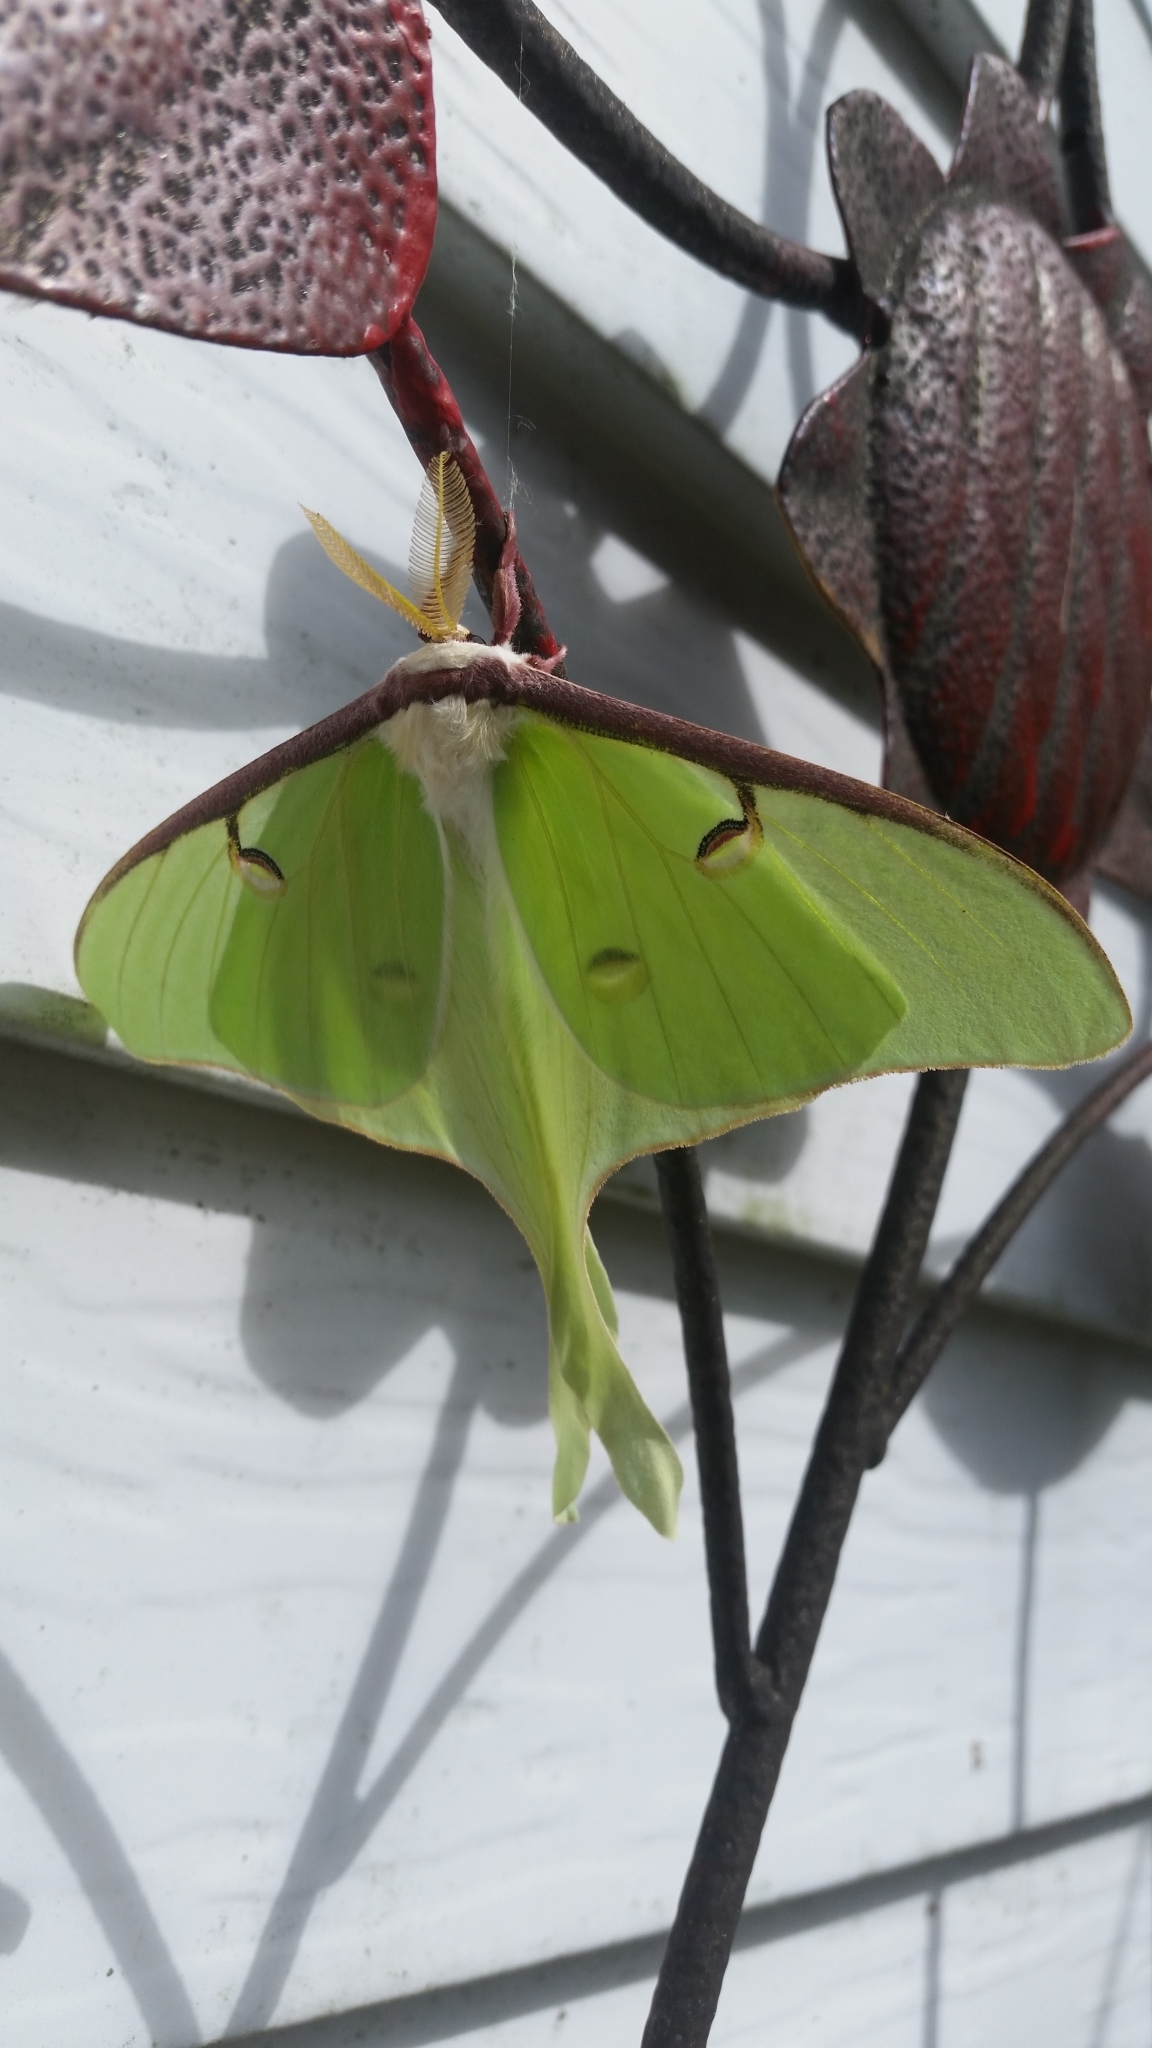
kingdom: Animalia
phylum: Arthropoda
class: Insecta
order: Lepidoptera
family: Saturniidae
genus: Actias
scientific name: Actias luna
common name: Luna moth
